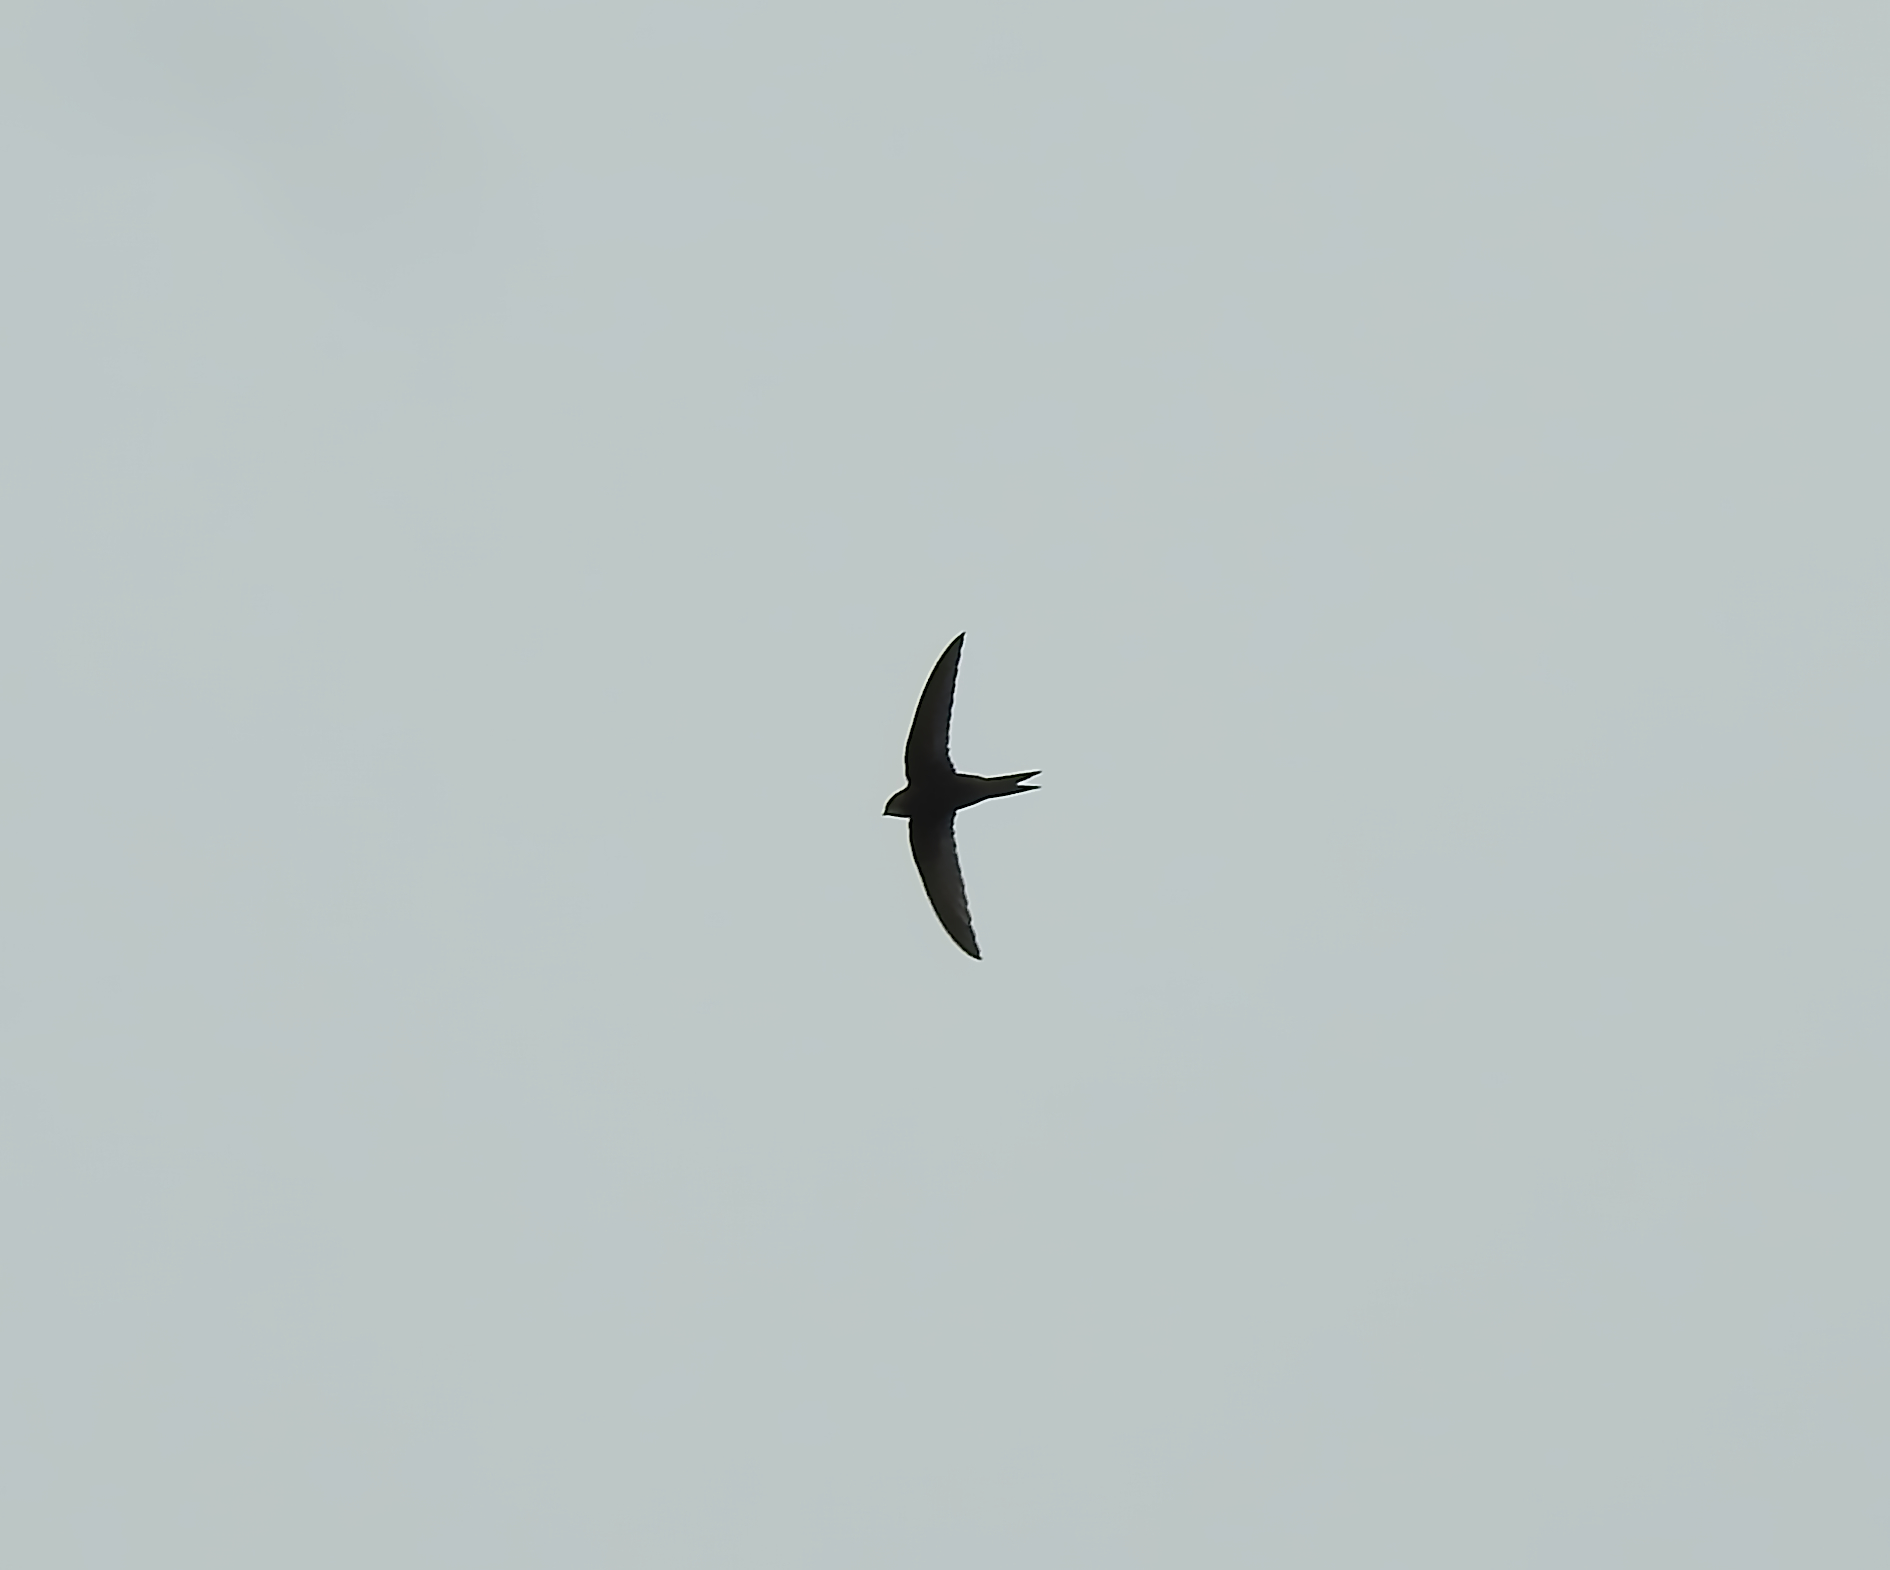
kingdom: Animalia
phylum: Chordata
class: Aves
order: Apodiformes
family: Apodidae
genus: Apus
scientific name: Apus apus
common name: Common swift
